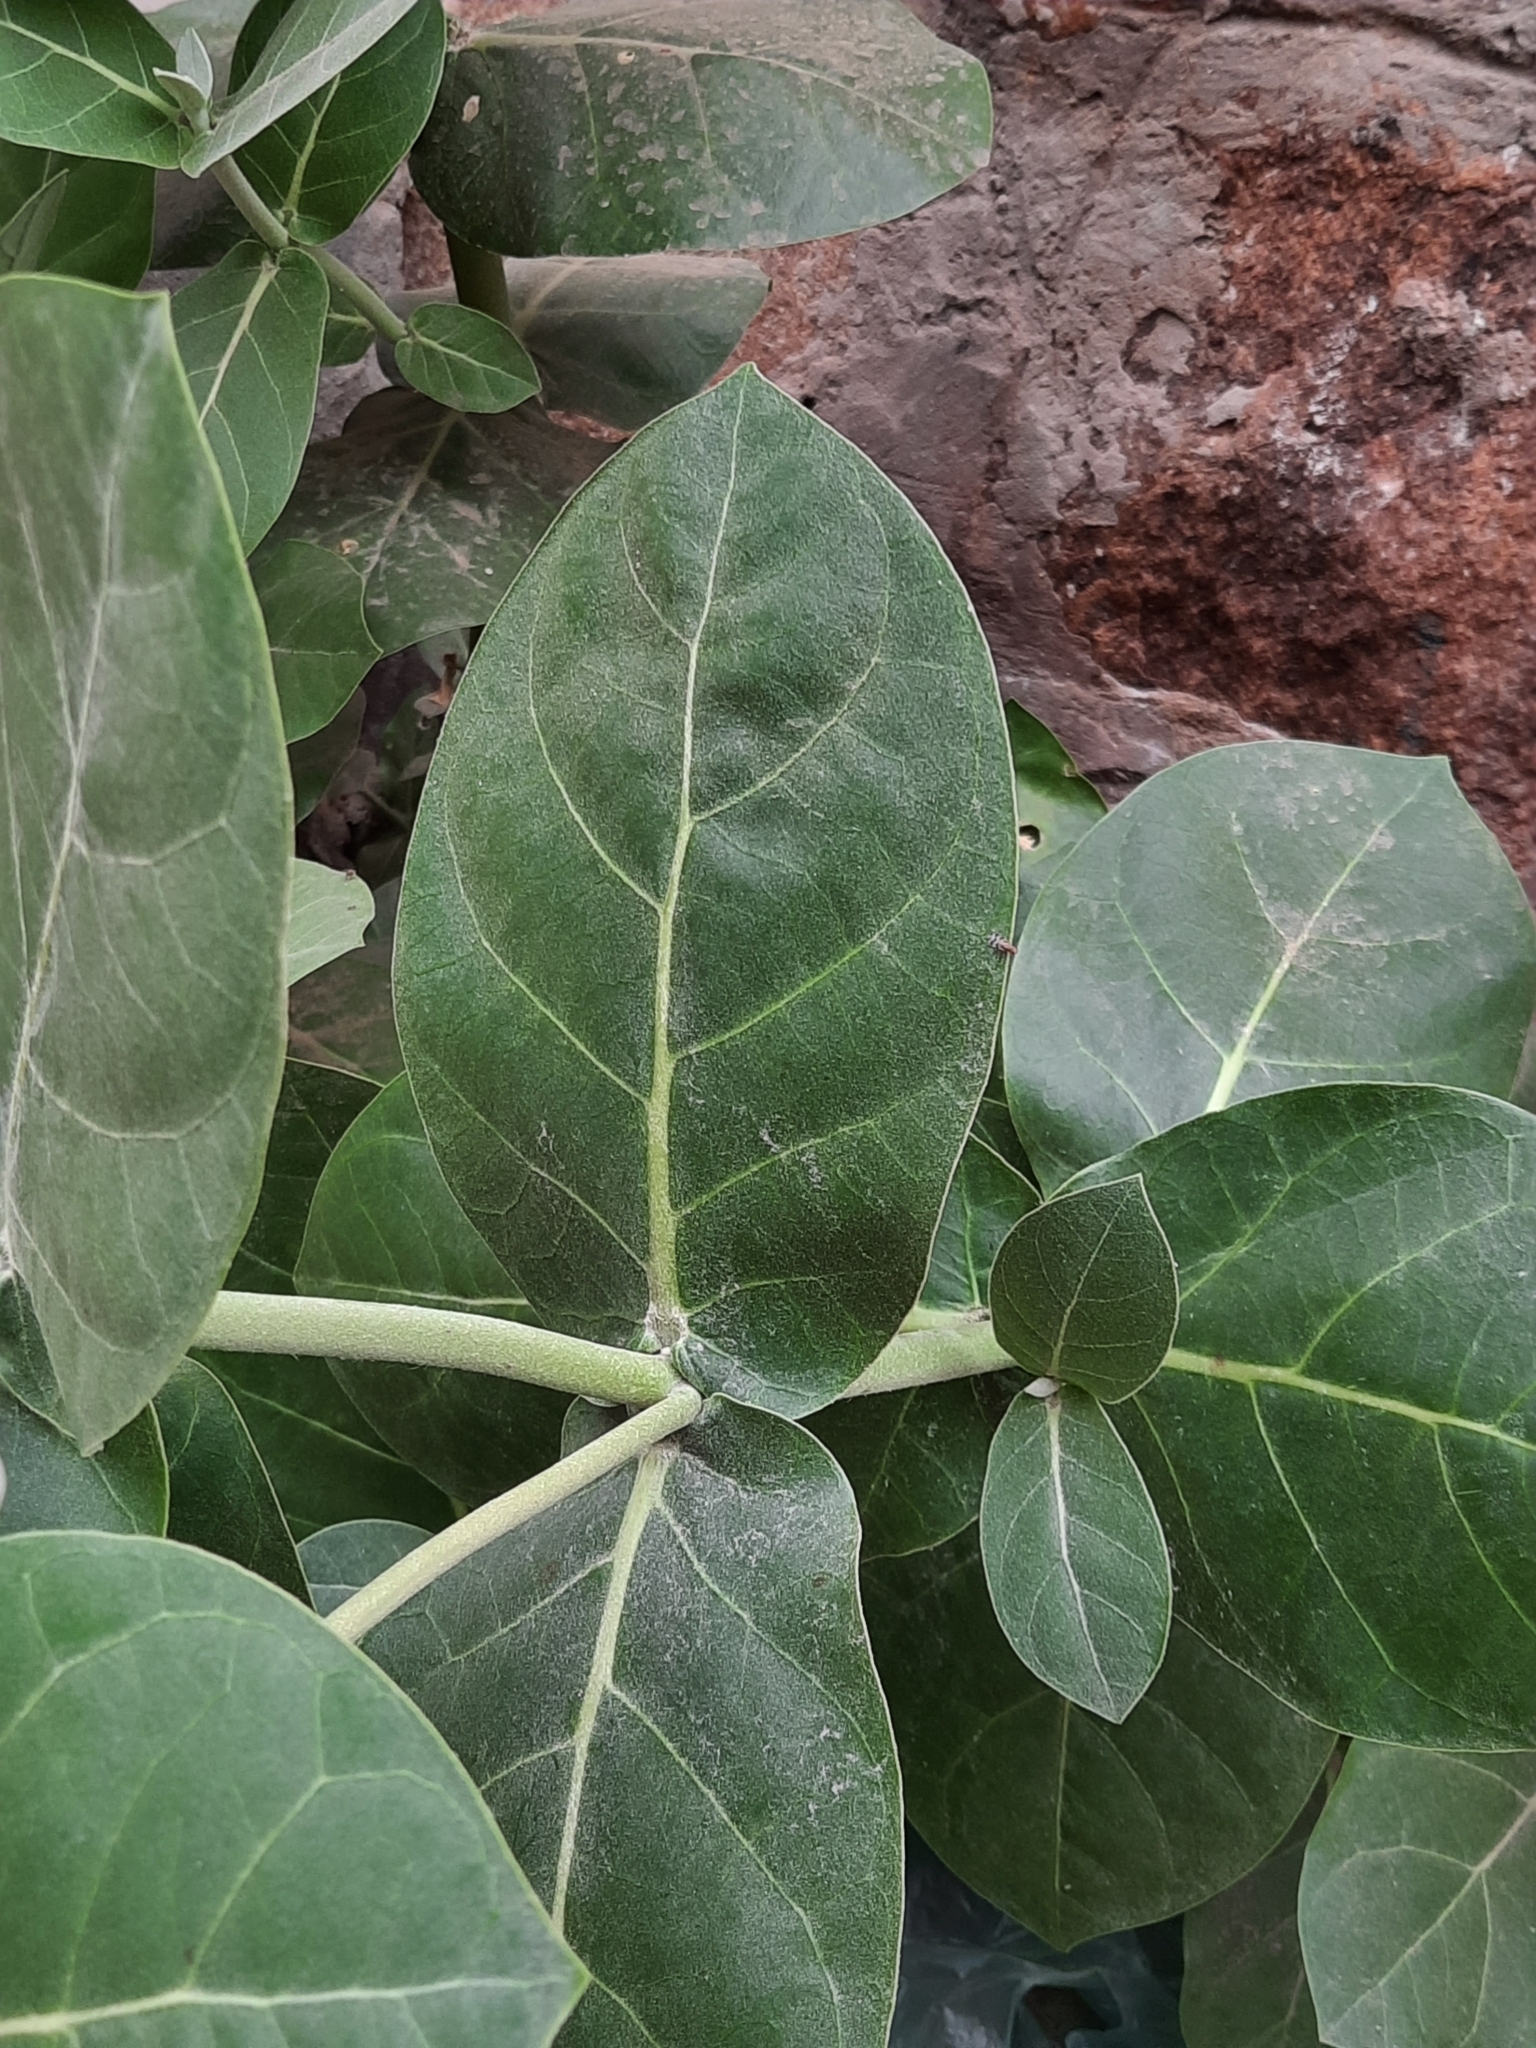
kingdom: Plantae
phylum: Tracheophyta
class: Magnoliopsida
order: Gentianales
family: Apocynaceae
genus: Calotropis
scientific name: Calotropis procera
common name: Roostertree
